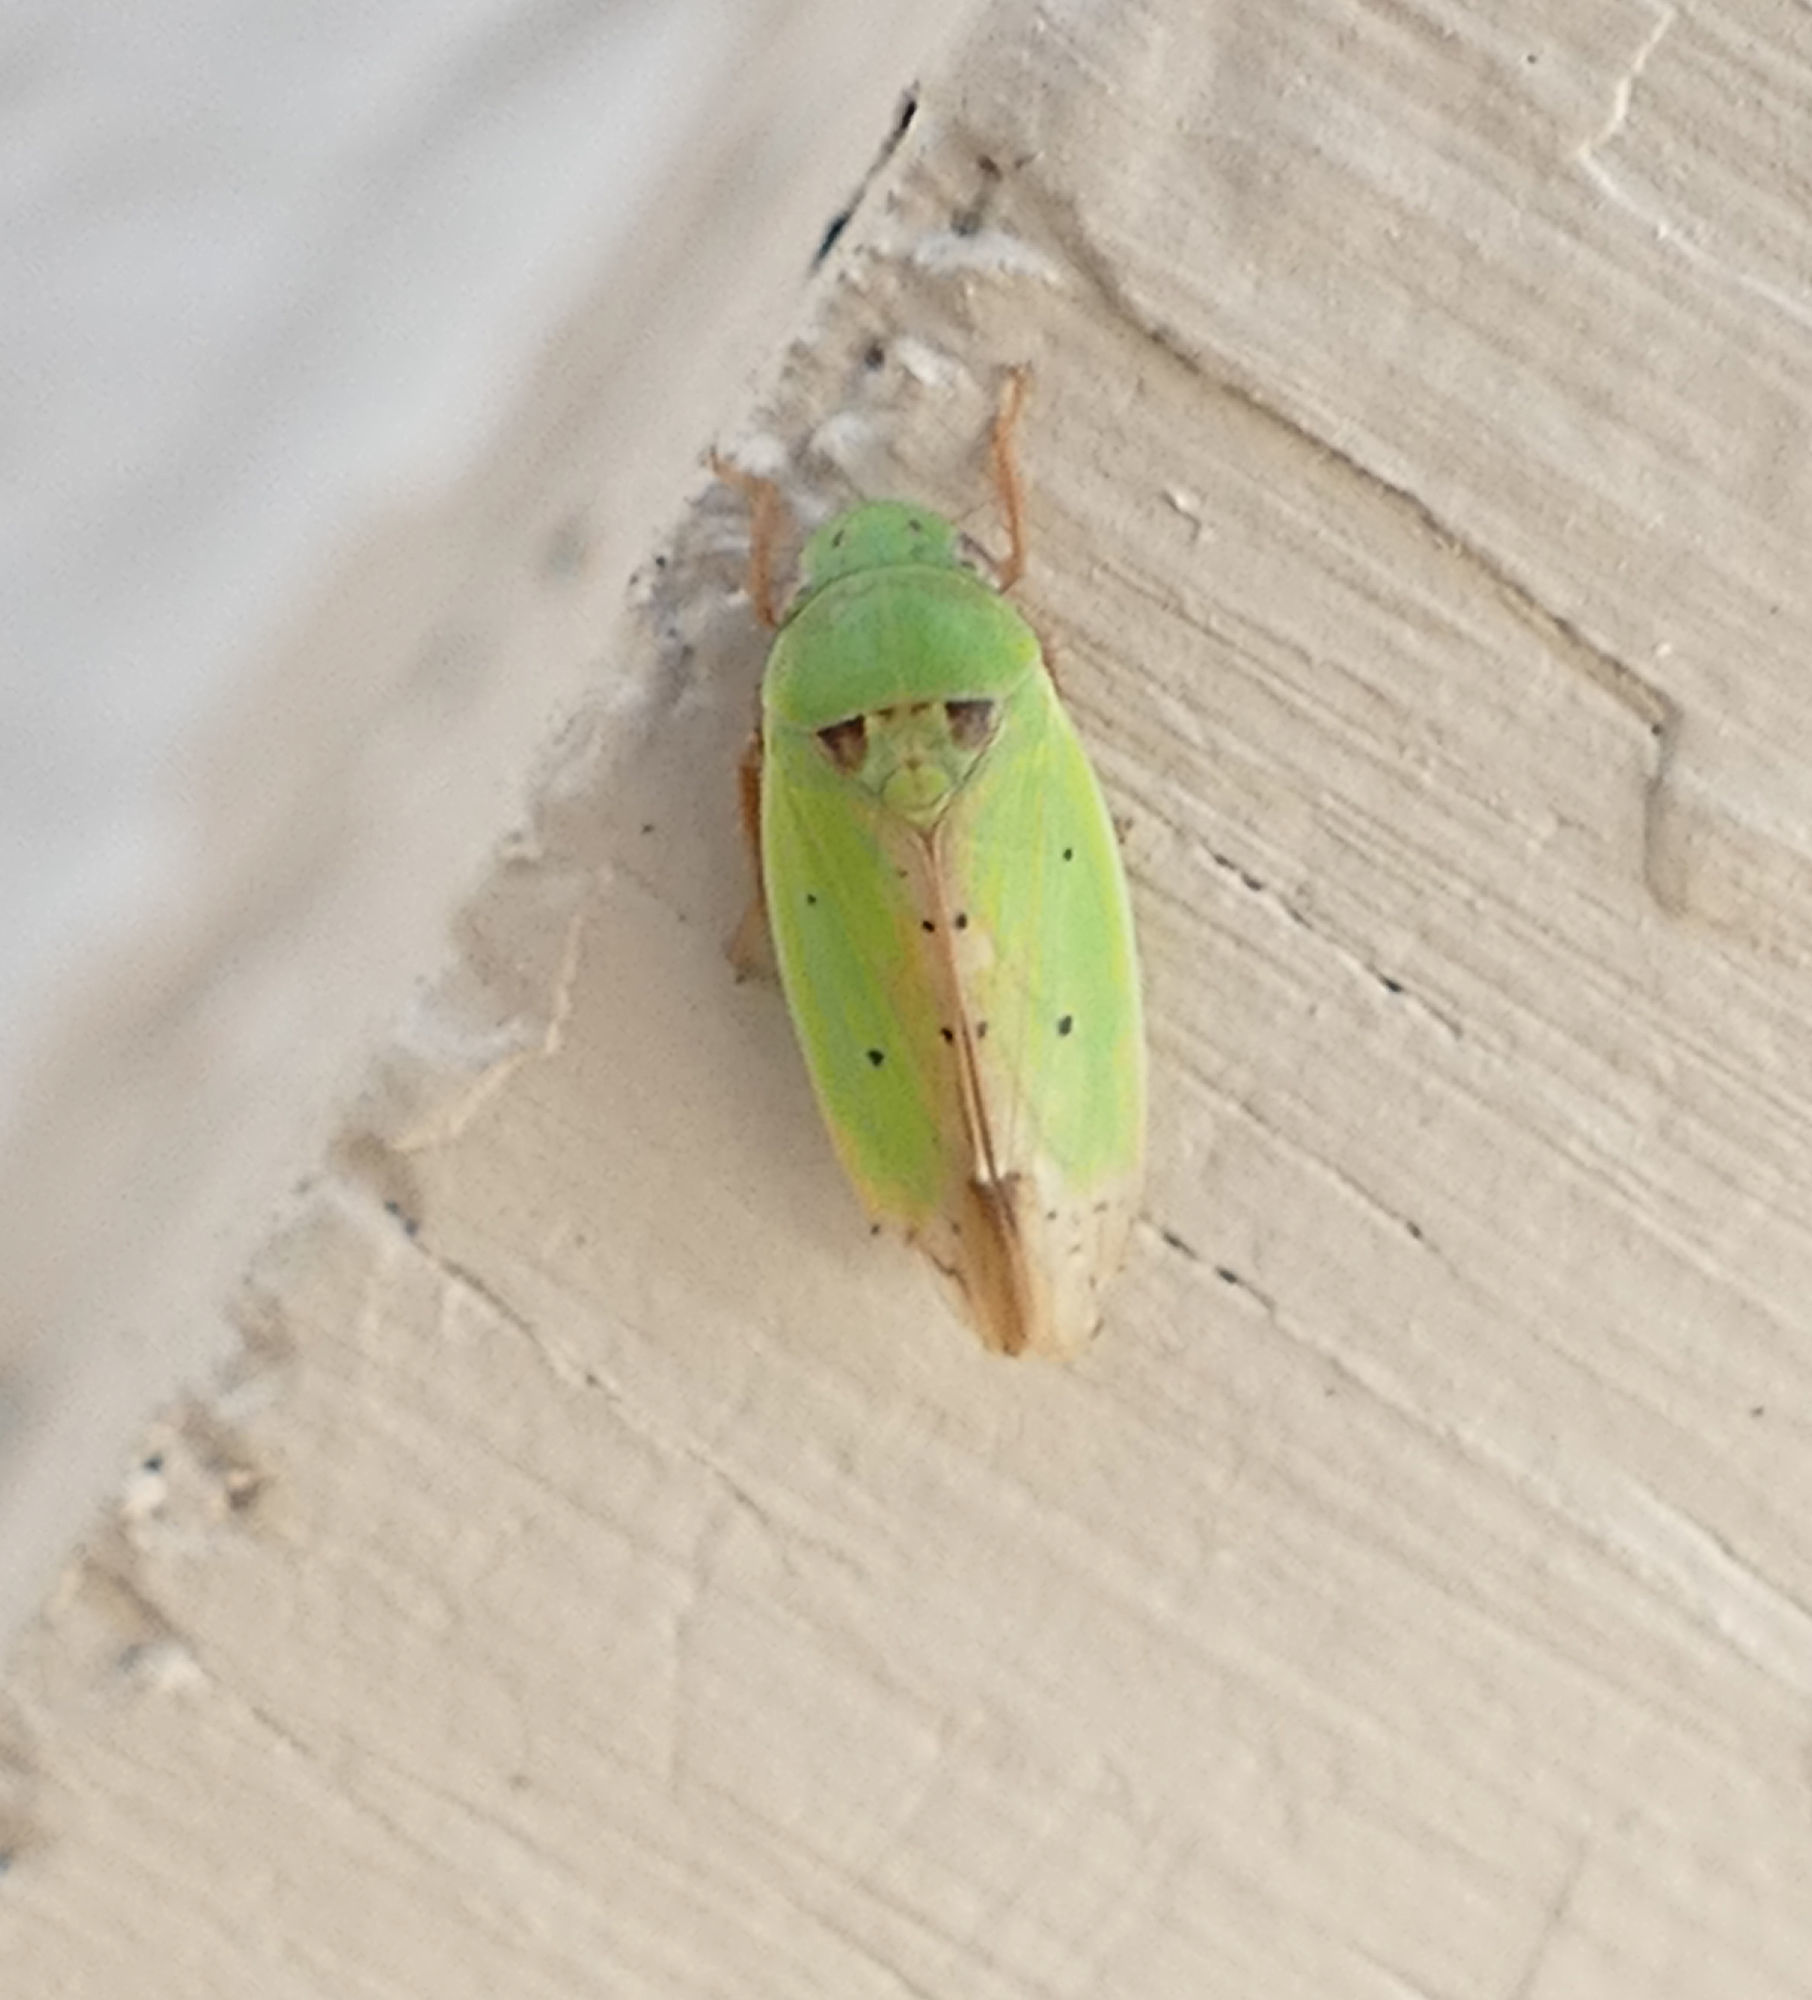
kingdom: Animalia
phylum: Arthropoda
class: Insecta
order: Hemiptera
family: Cicadellidae
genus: Ponana
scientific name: Ponana
